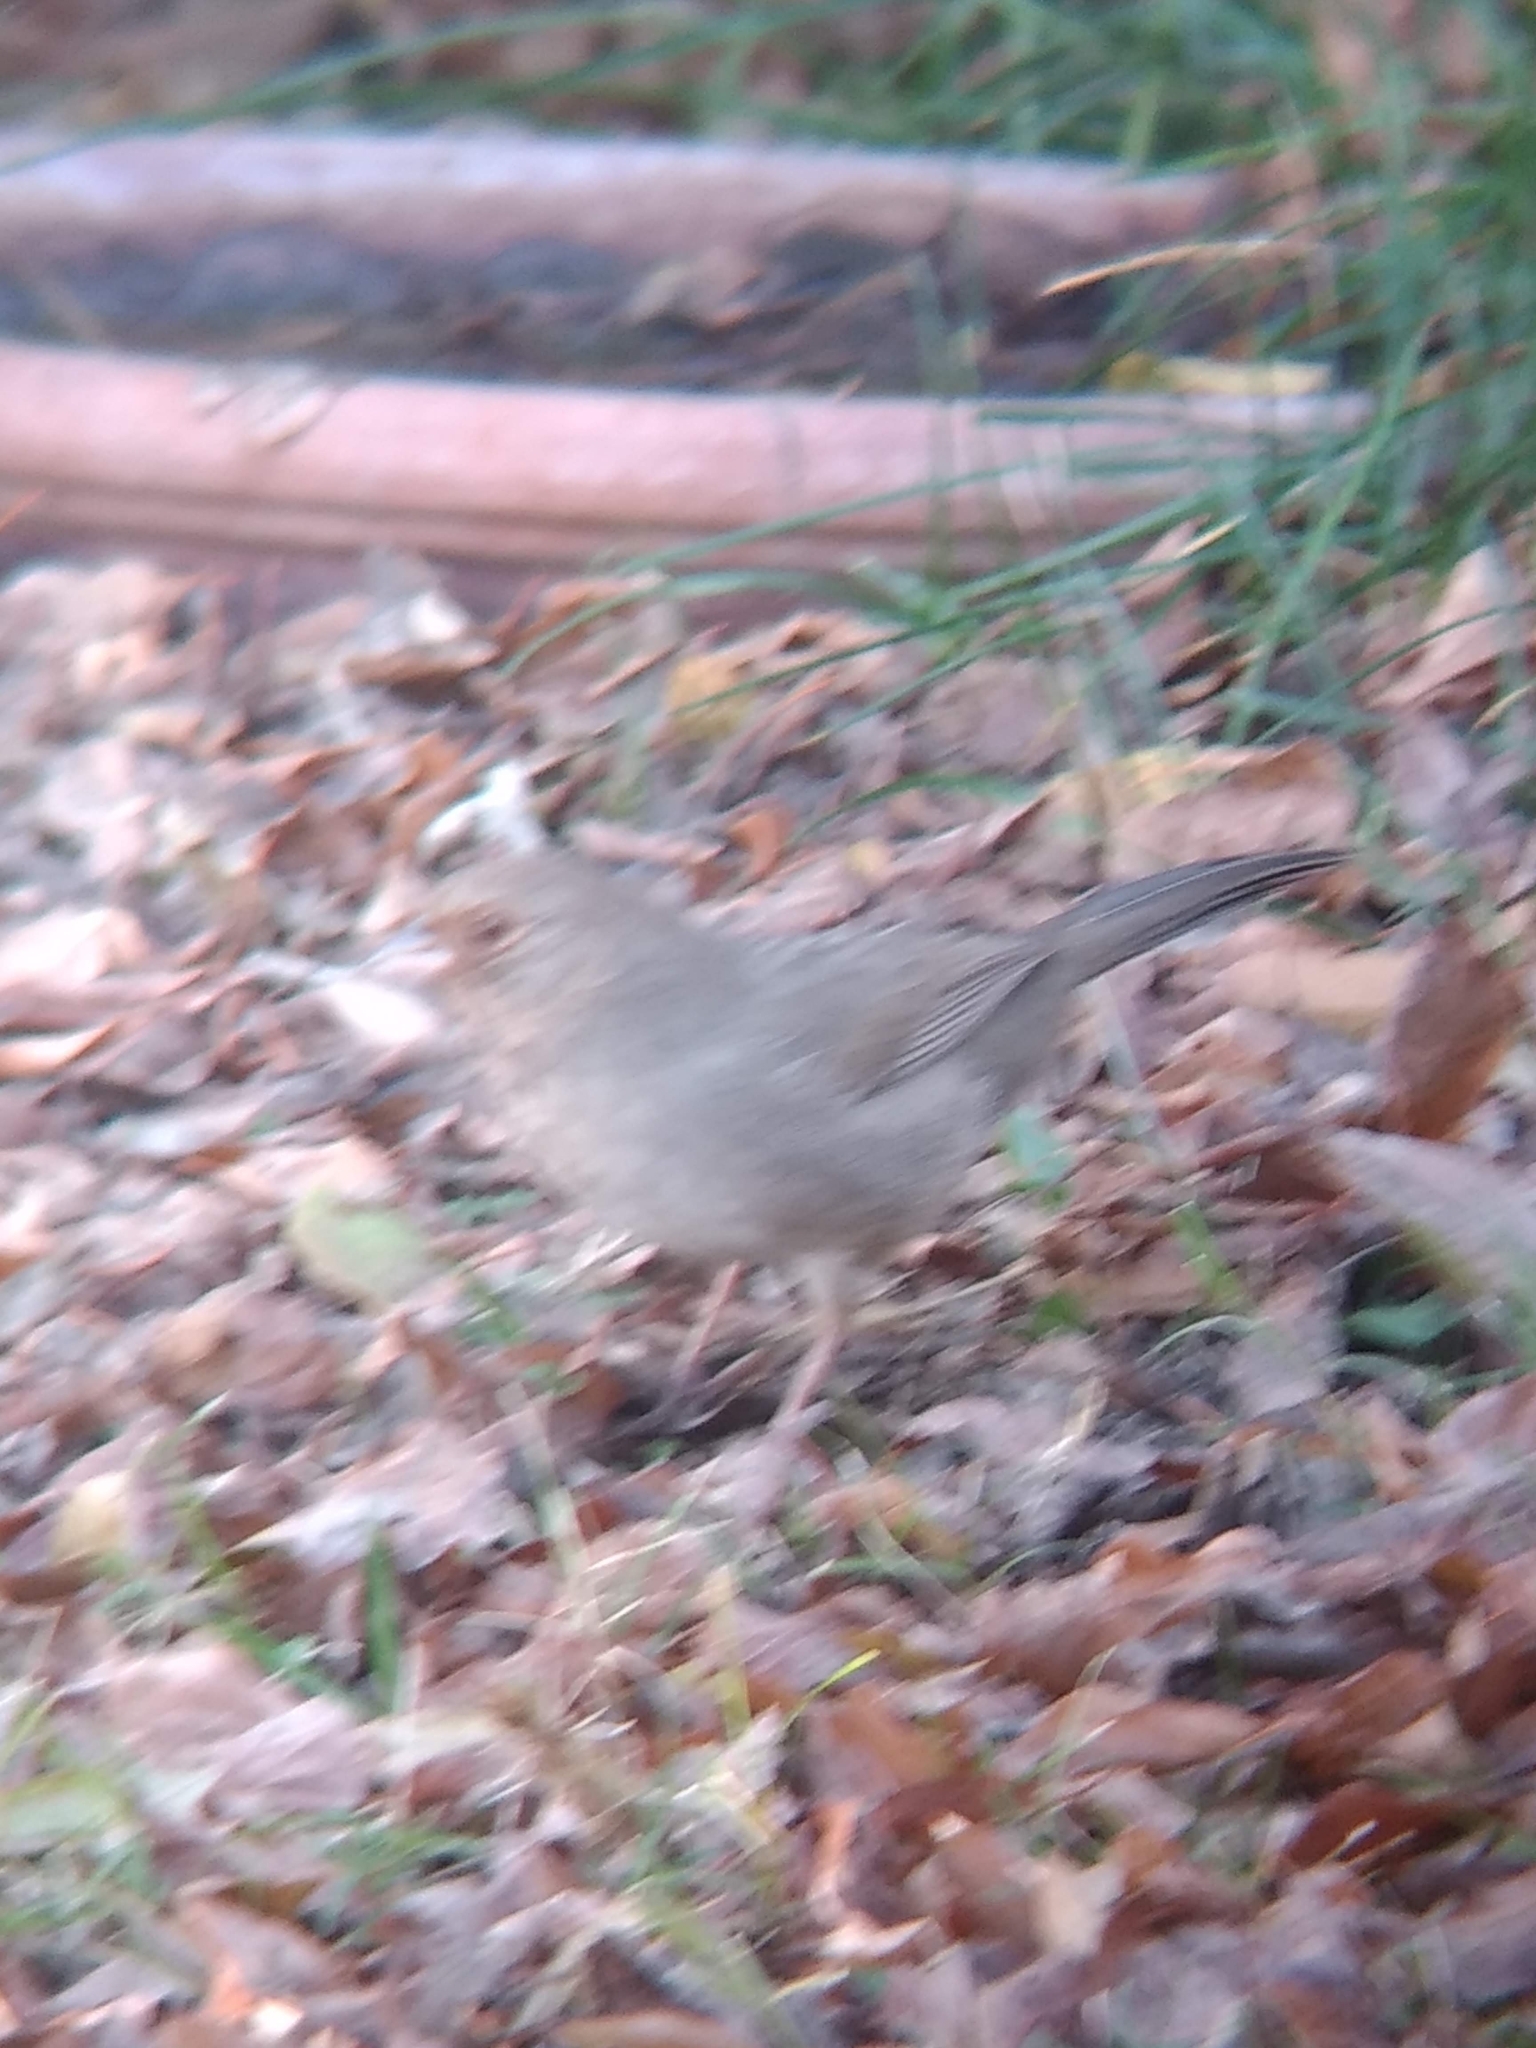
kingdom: Animalia
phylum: Chordata
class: Aves
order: Passeriformes
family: Passerellidae
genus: Melozone
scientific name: Melozone crissalis
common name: California towhee
